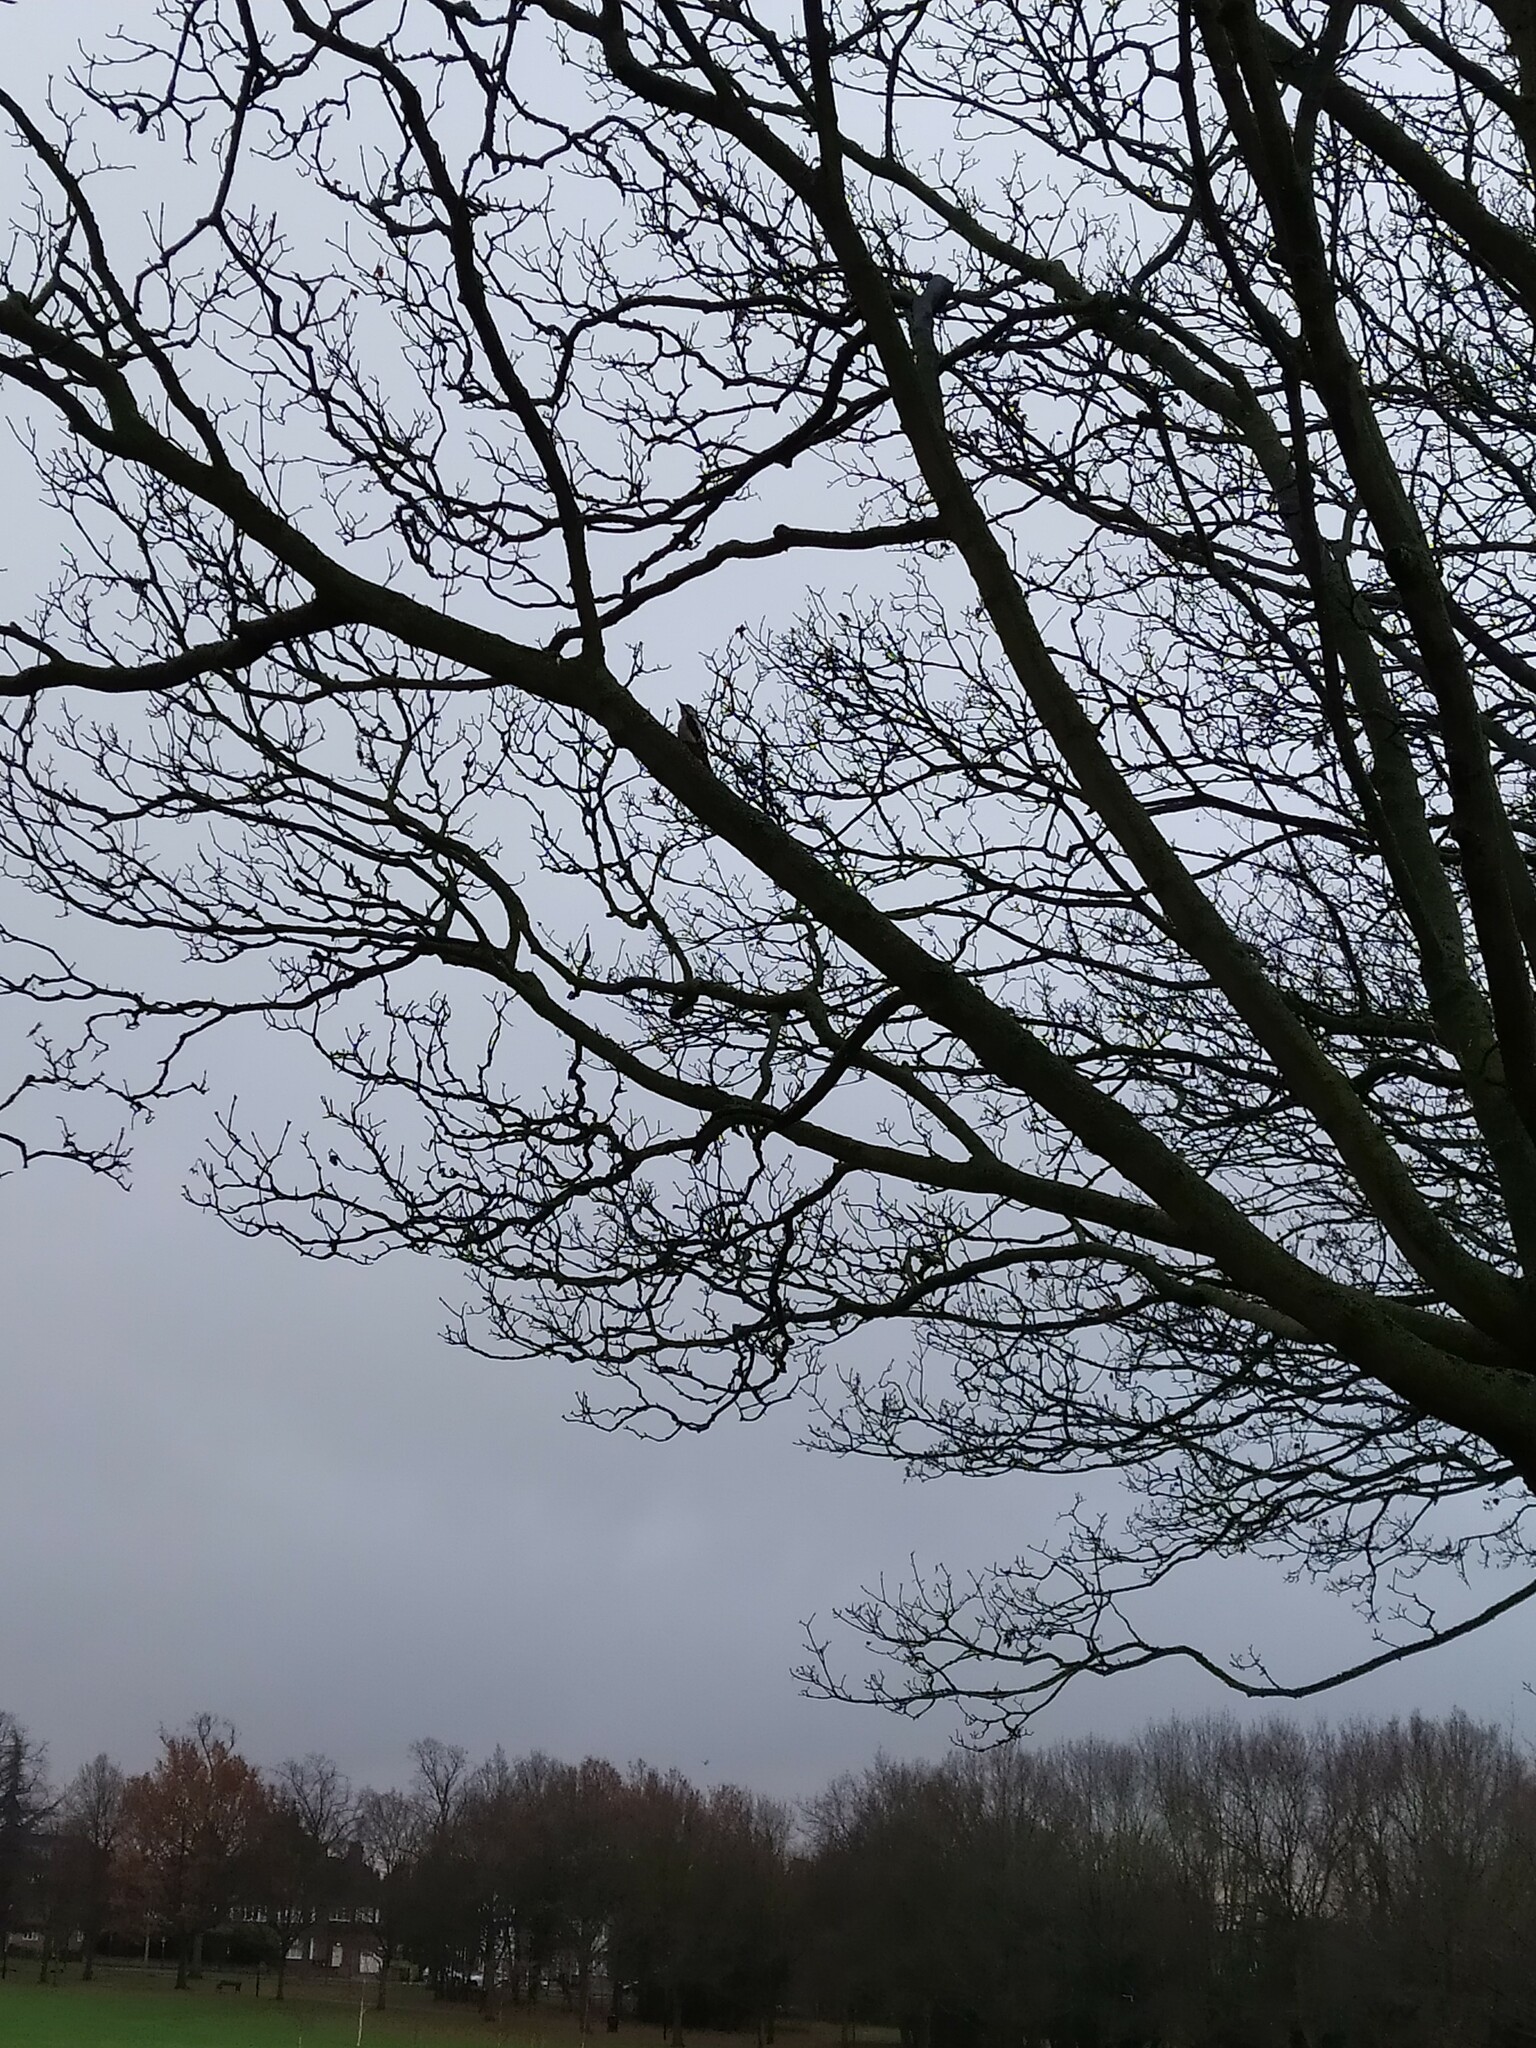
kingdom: Animalia
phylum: Chordata
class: Aves
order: Piciformes
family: Picidae
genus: Dendrocopos
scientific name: Dendrocopos major
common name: Great spotted woodpecker
